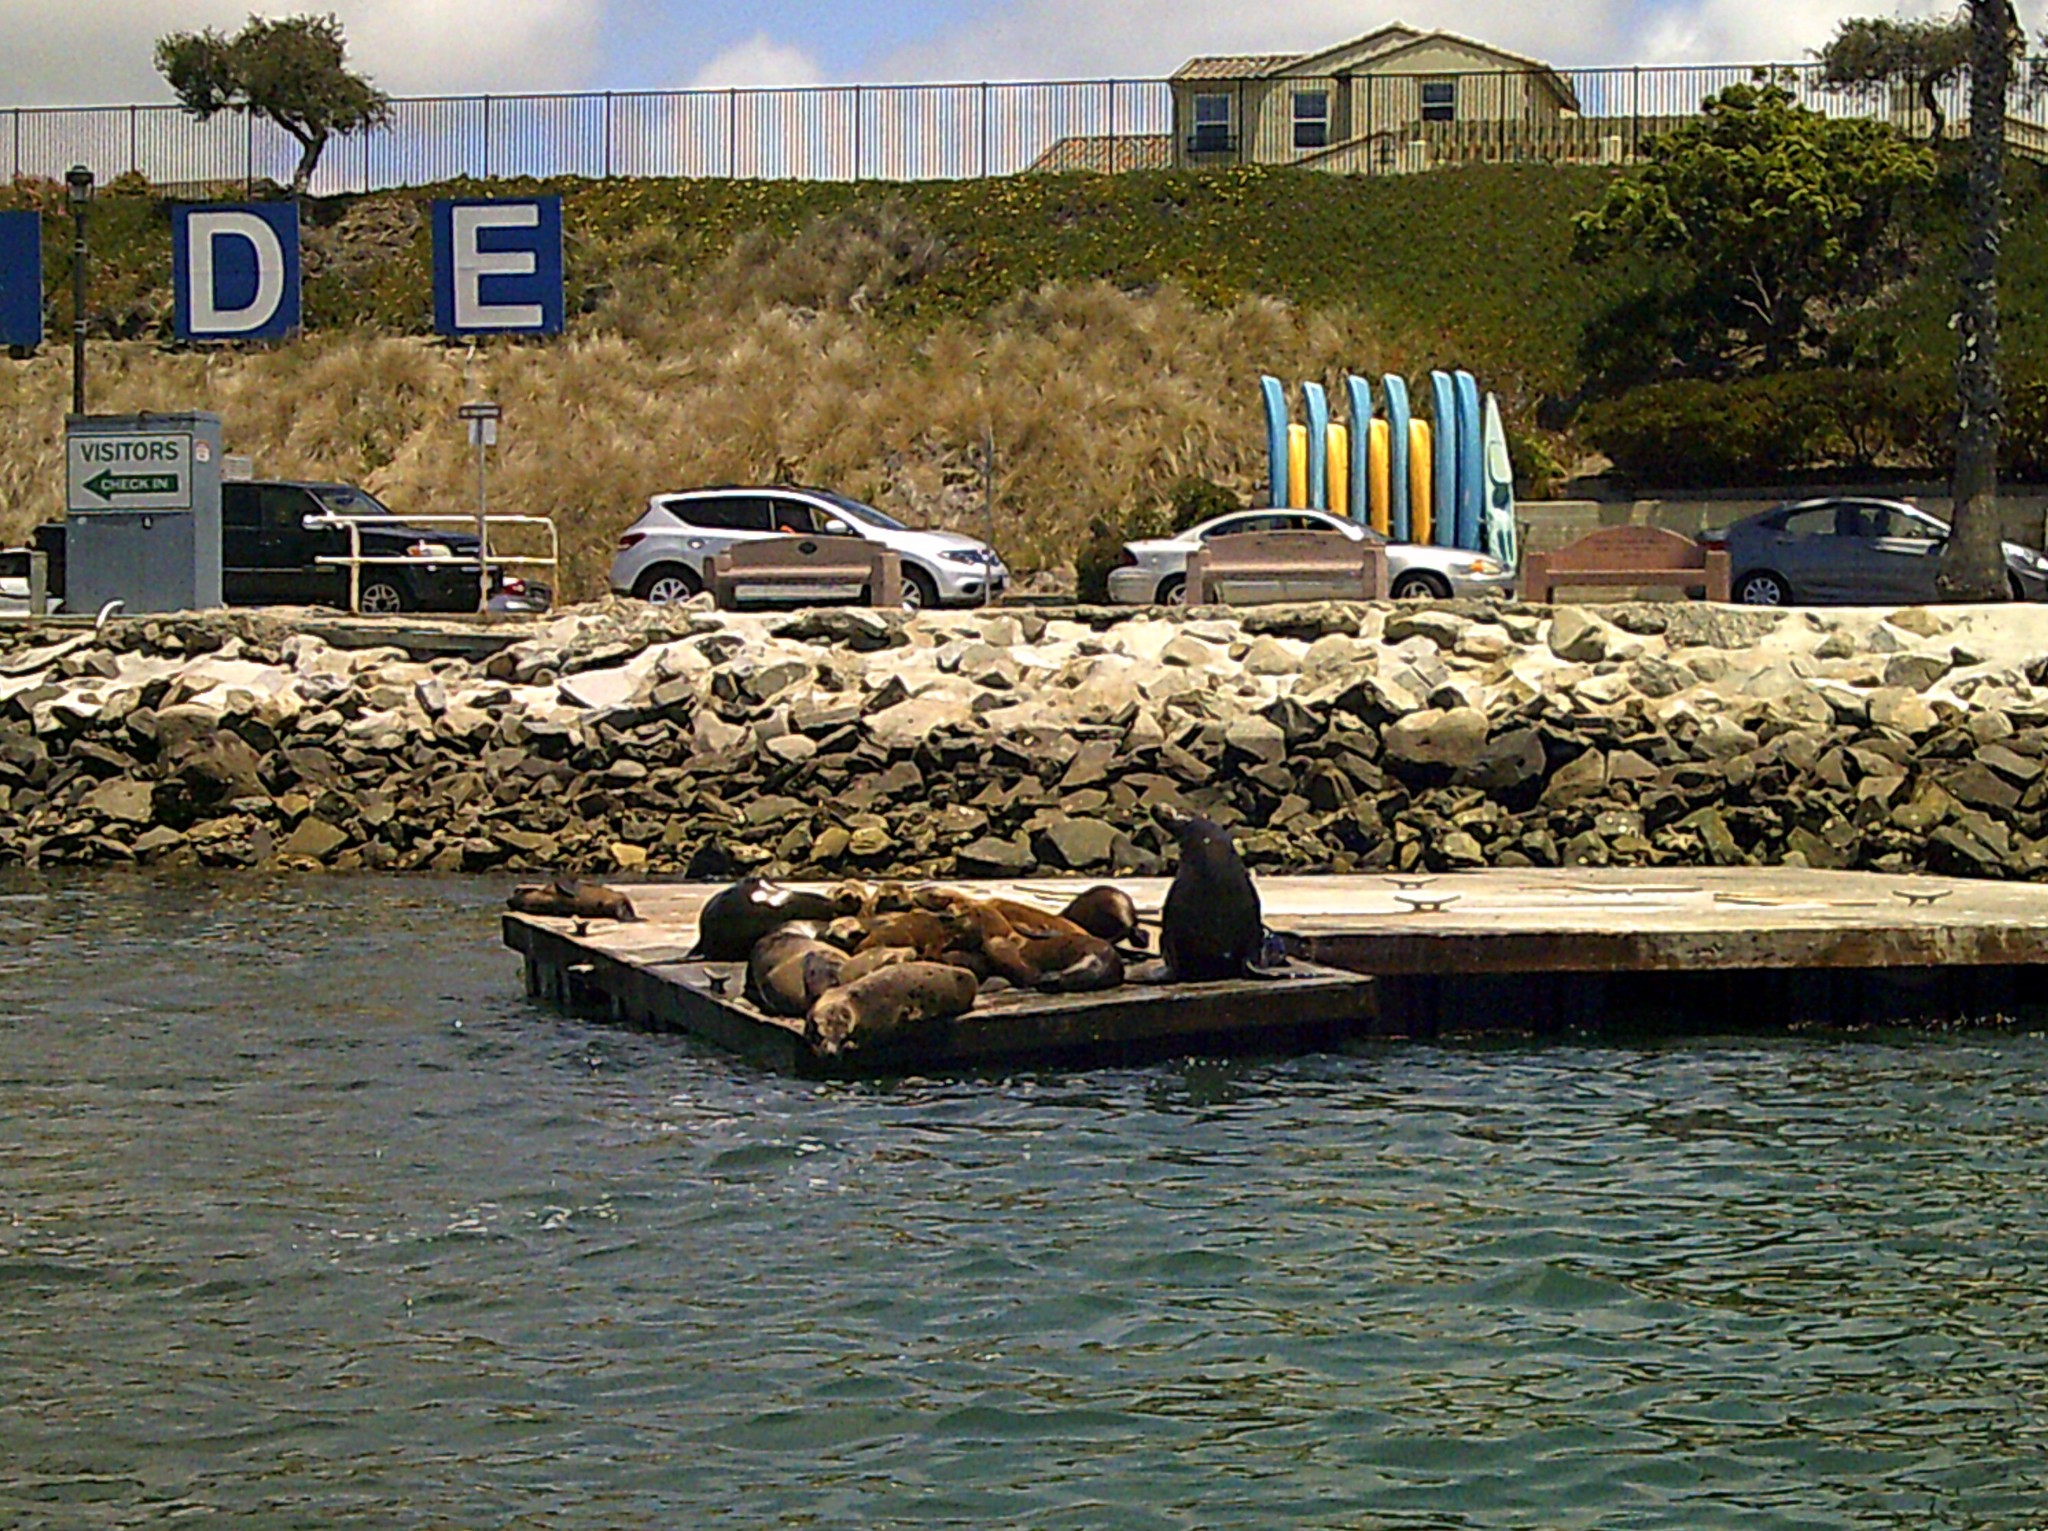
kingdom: Animalia
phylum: Chordata
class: Mammalia
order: Carnivora
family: Otariidae
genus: Zalophus
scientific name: Zalophus californianus
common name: California sea lion
